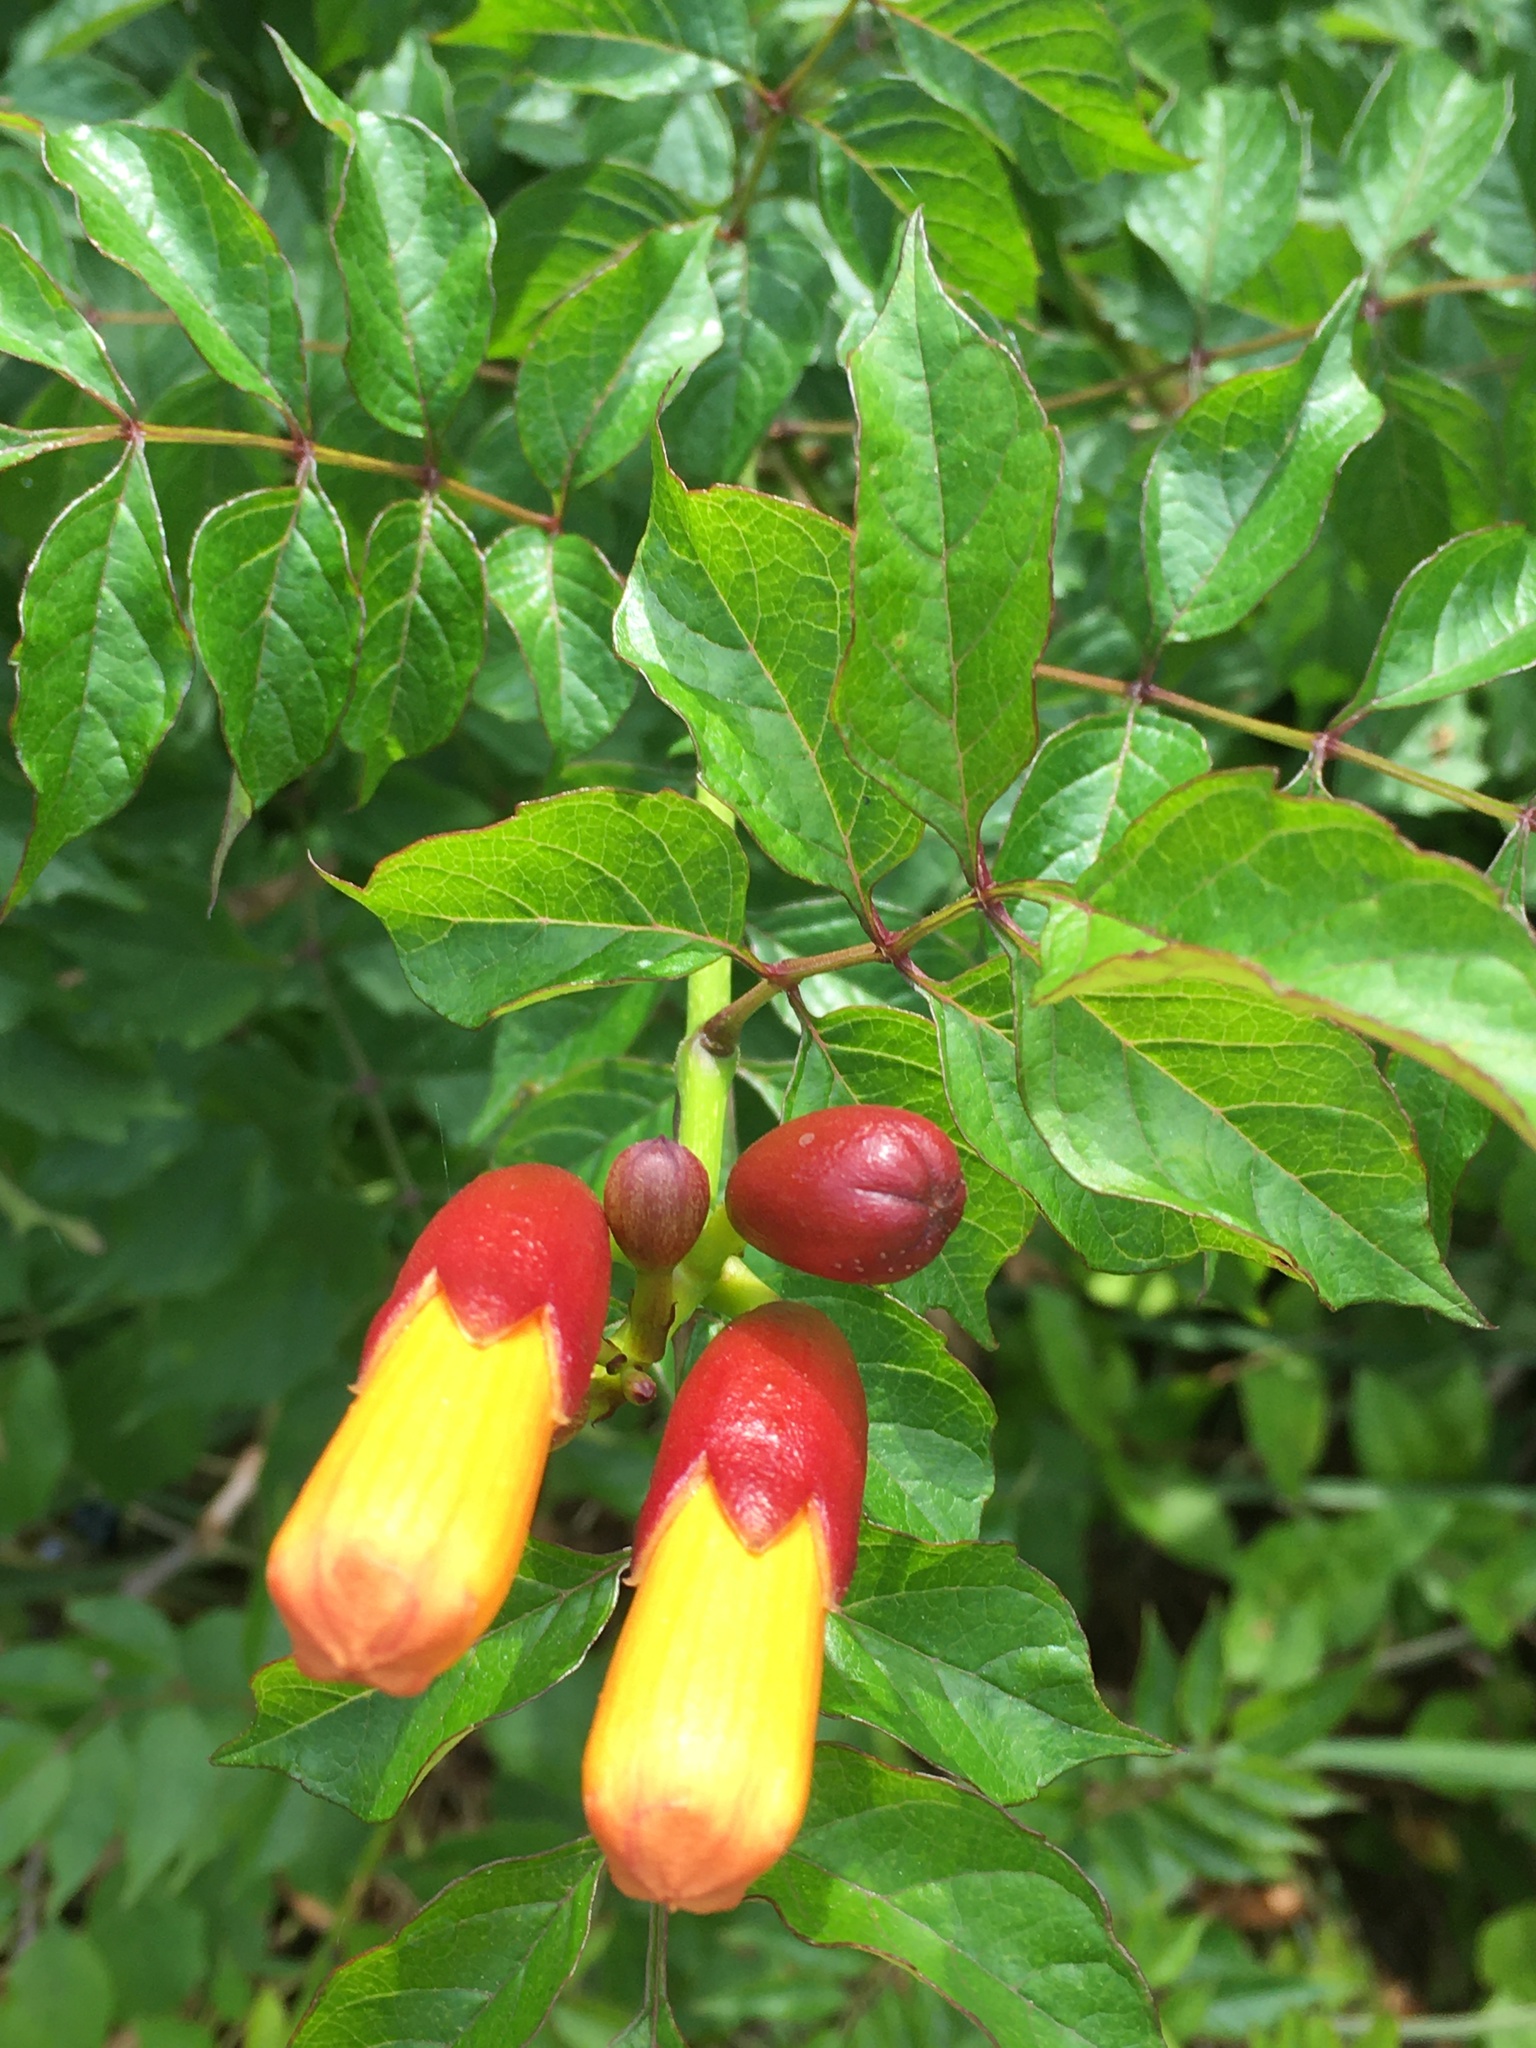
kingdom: Plantae
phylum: Tracheophyta
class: Magnoliopsida
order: Lamiales
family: Bignoniaceae
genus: Campsis
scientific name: Campsis radicans
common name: Trumpet-creeper
